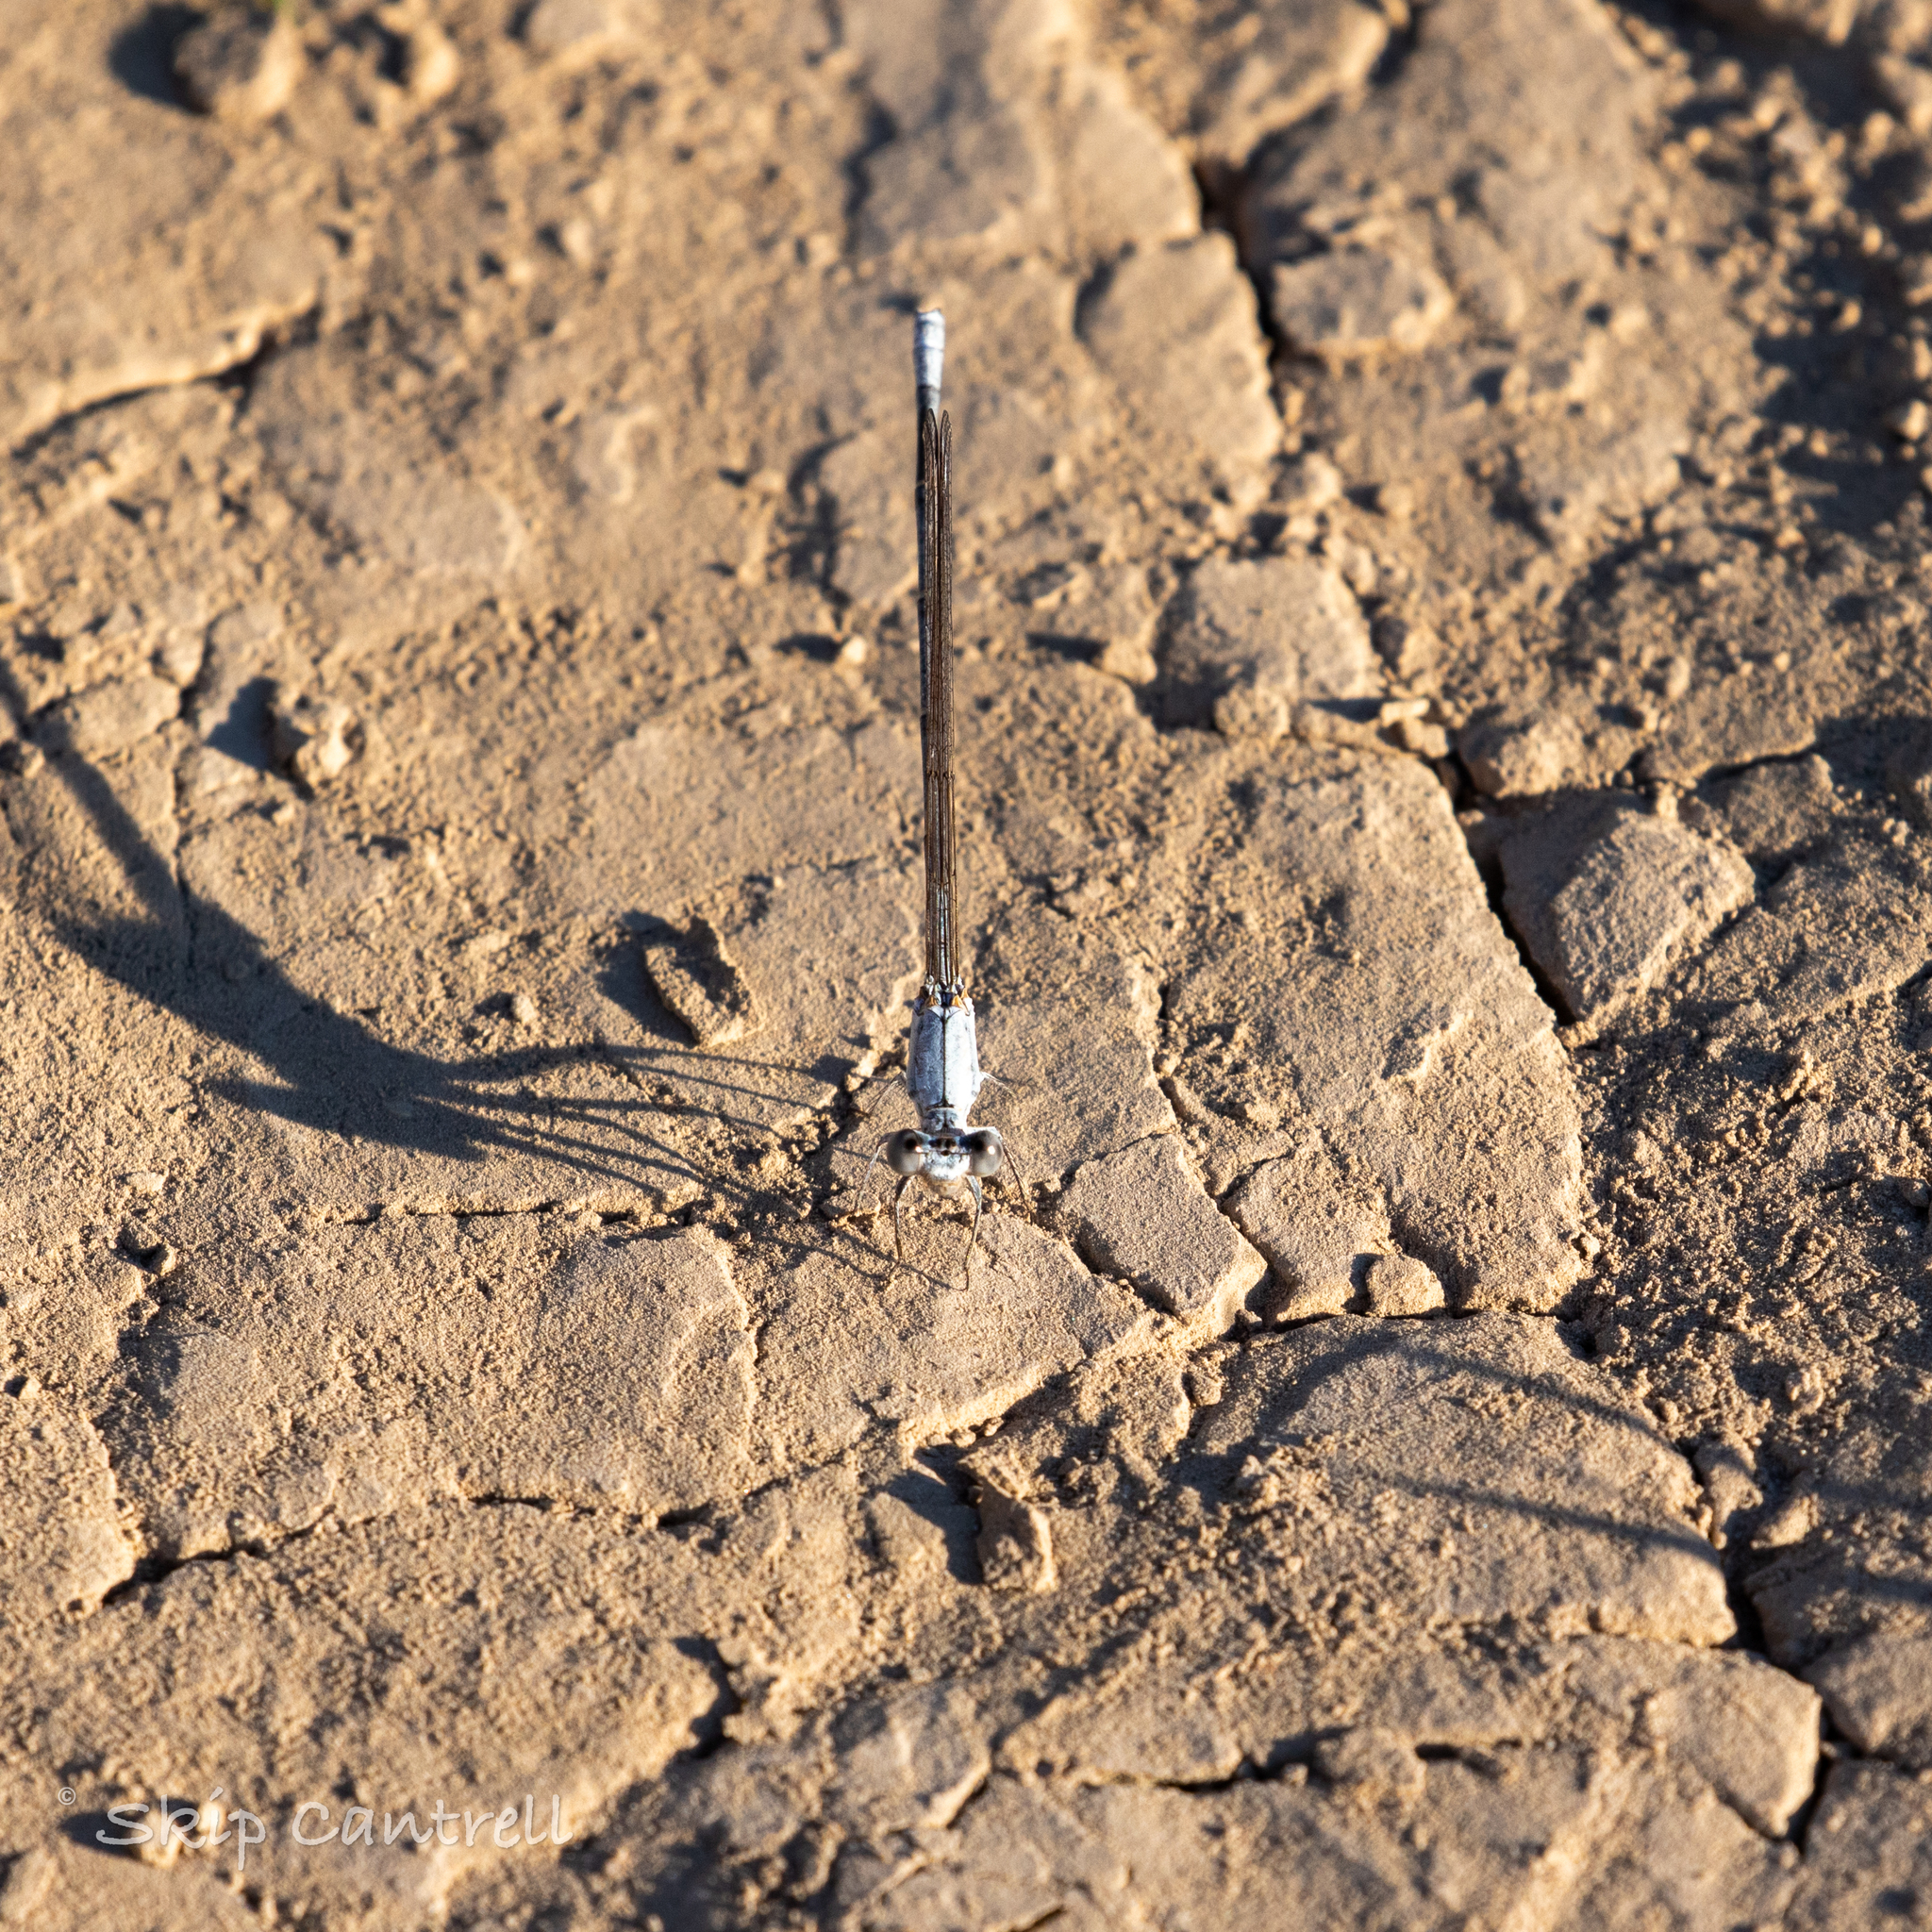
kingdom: Animalia
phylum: Arthropoda
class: Insecta
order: Odonata
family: Coenagrionidae
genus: Argia
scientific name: Argia moesta
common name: Powdered dancer
